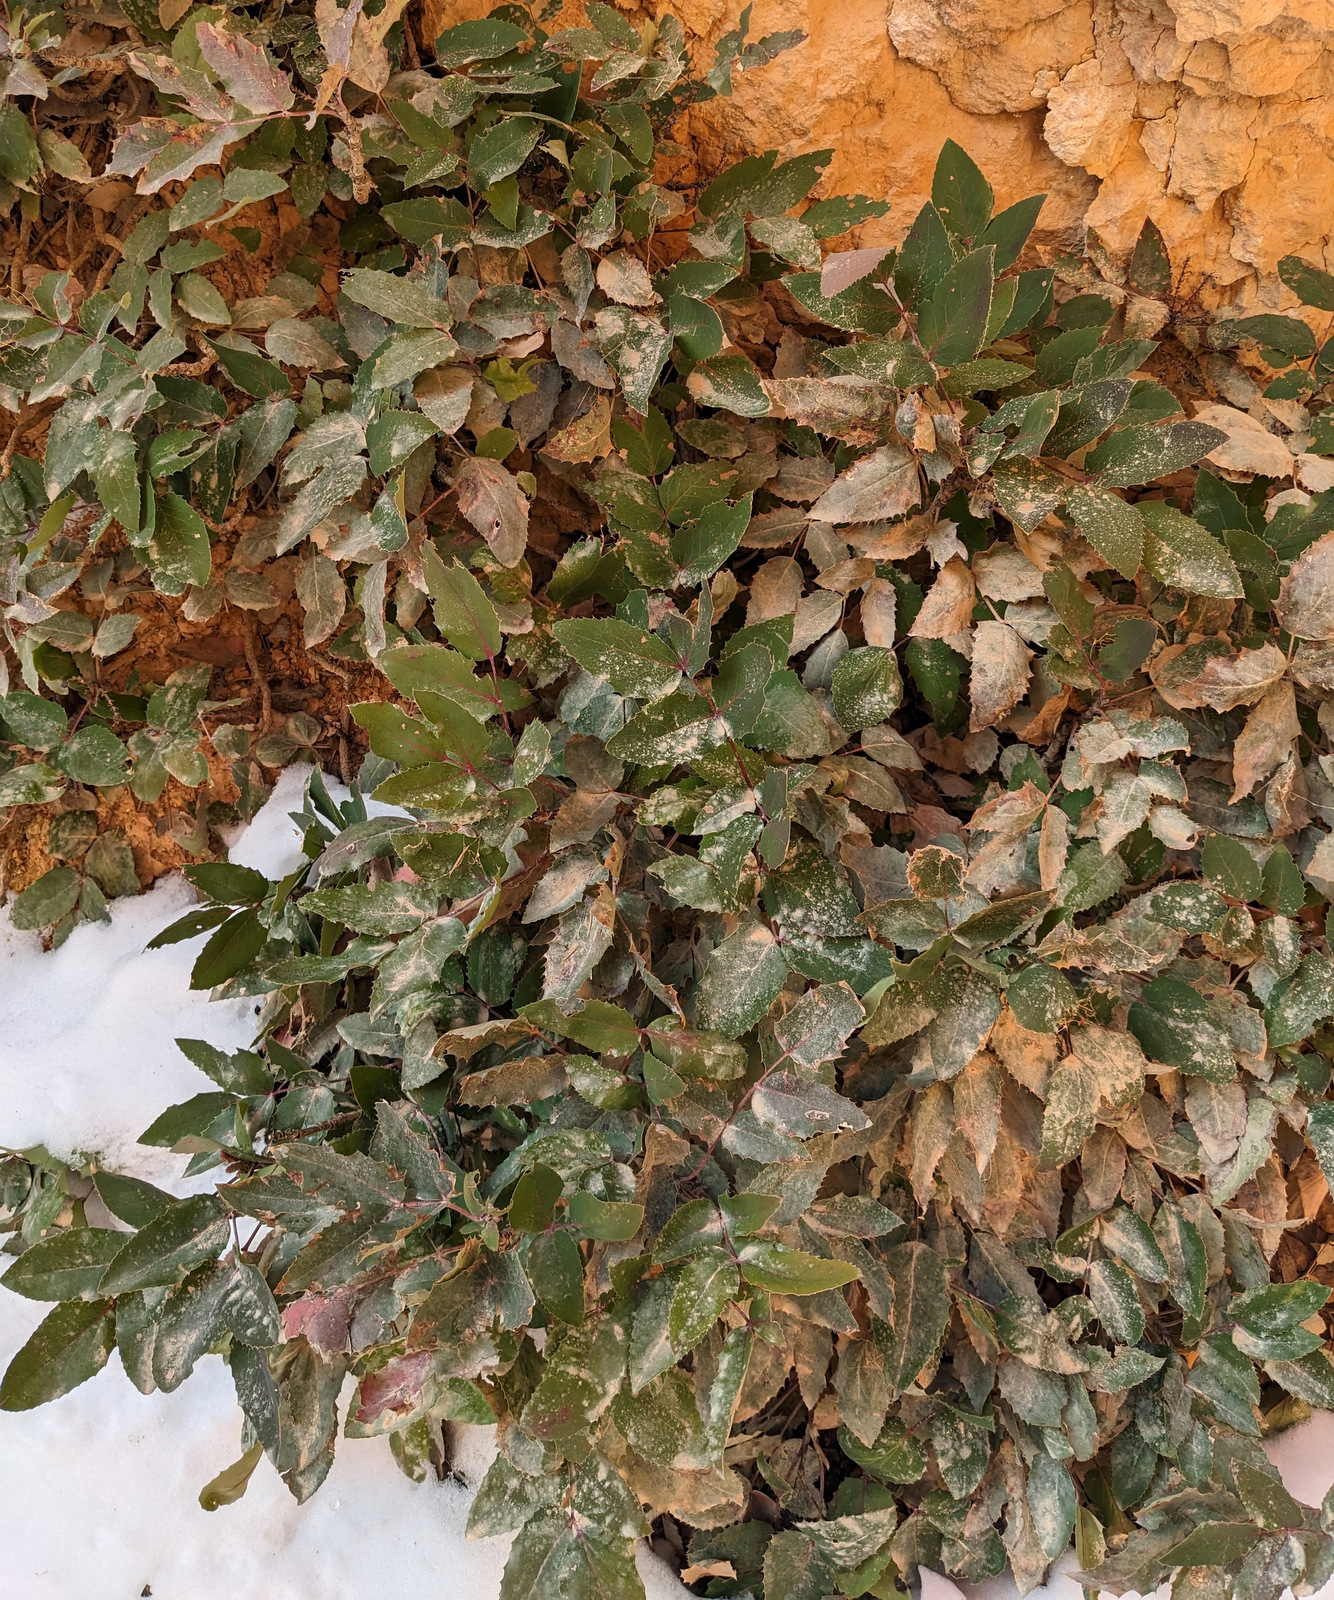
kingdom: Plantae
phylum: Tracheophyta
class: Magnoliopsida
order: Ranunculales
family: Berberidaceae
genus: Mahonia
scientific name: Mahonia repens
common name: Creeping oregon-grape
